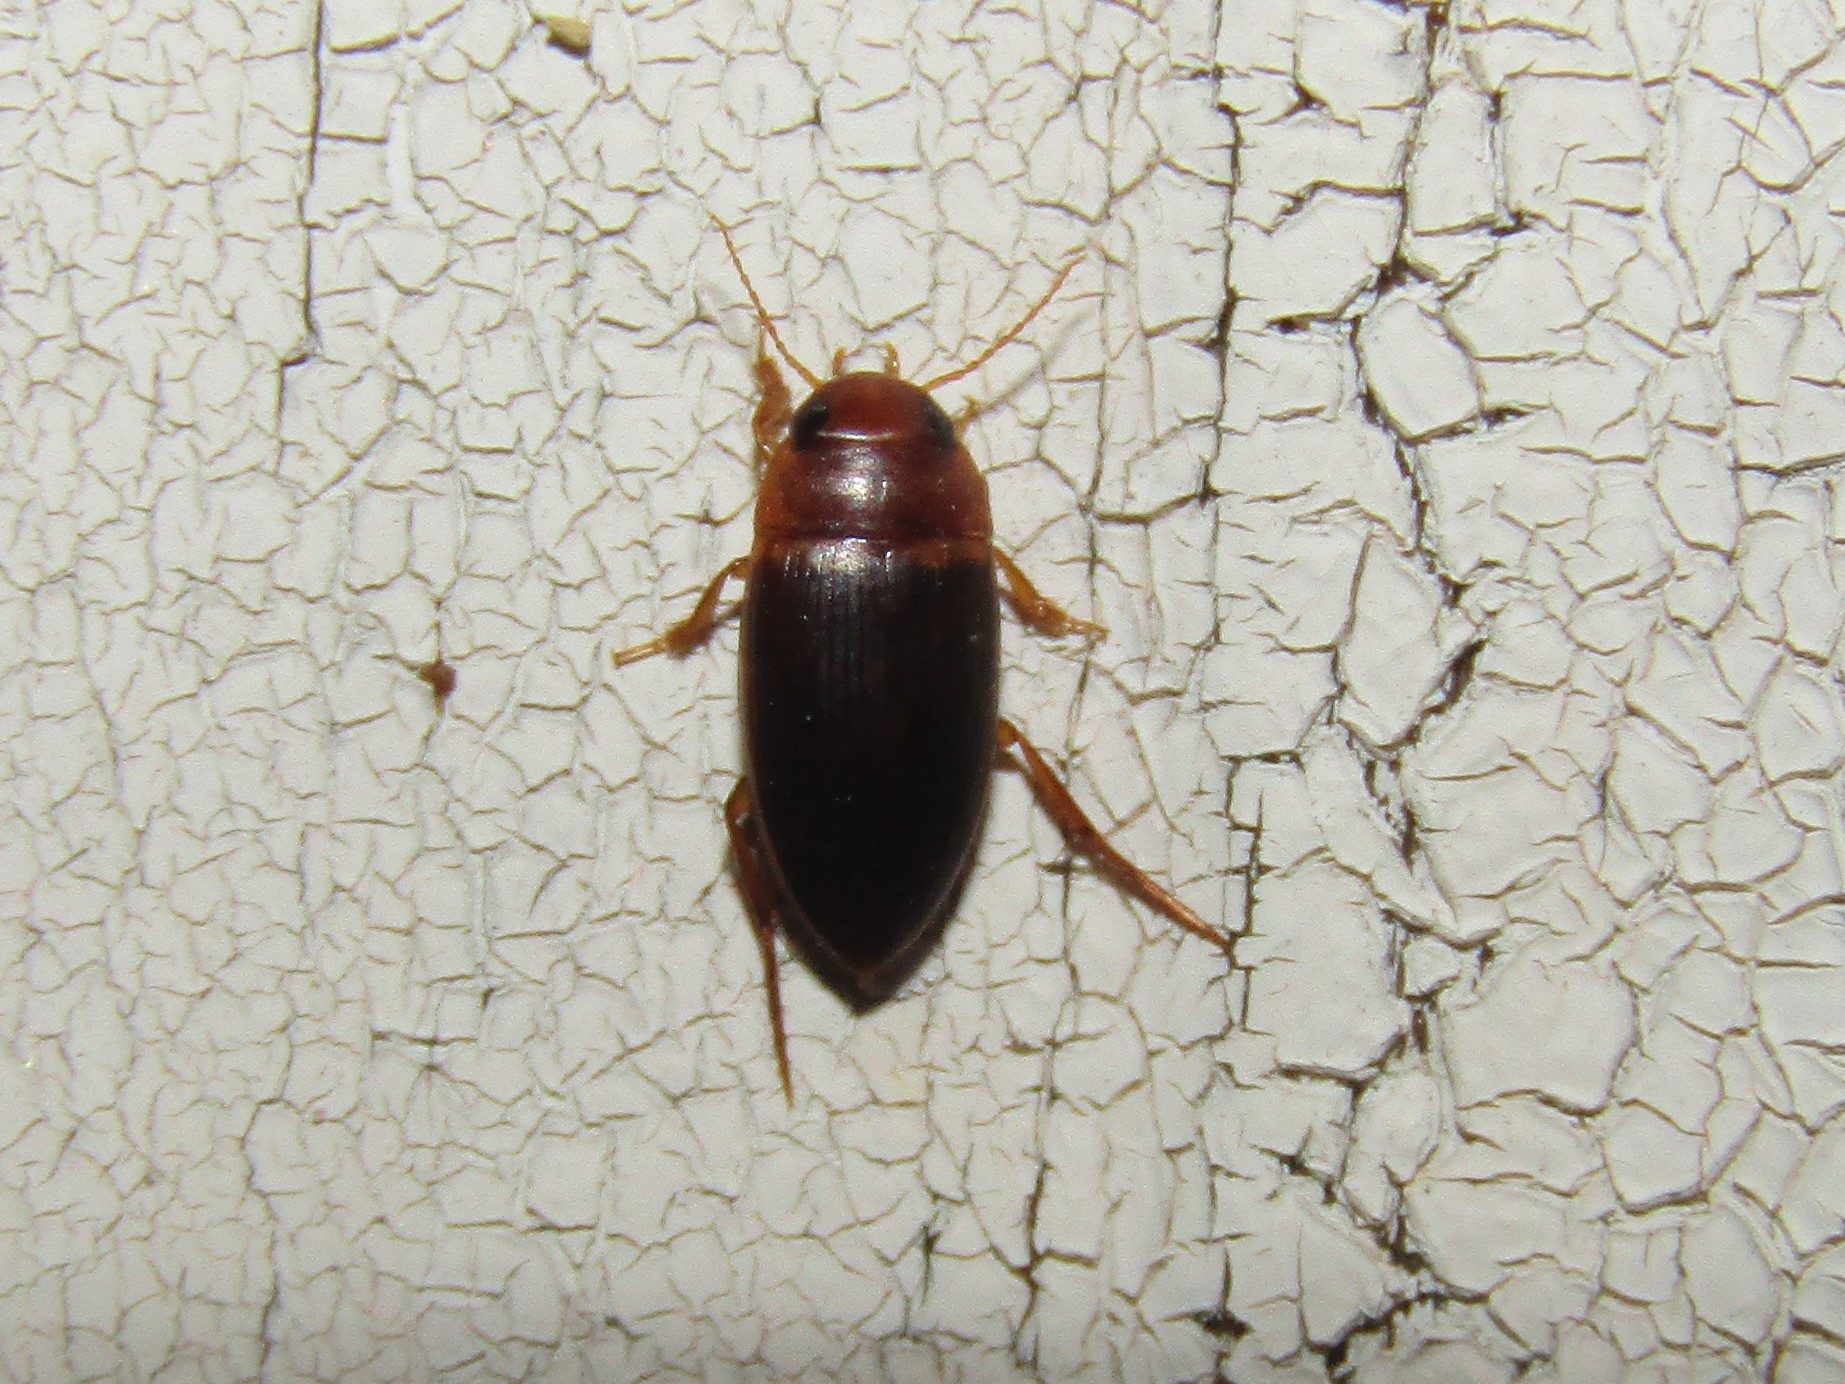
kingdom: Animalia
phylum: Arthropoda
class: Insecta
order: Coleoptera
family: Dytiscidae
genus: Copelatus
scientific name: Copelatus caelatipennis
